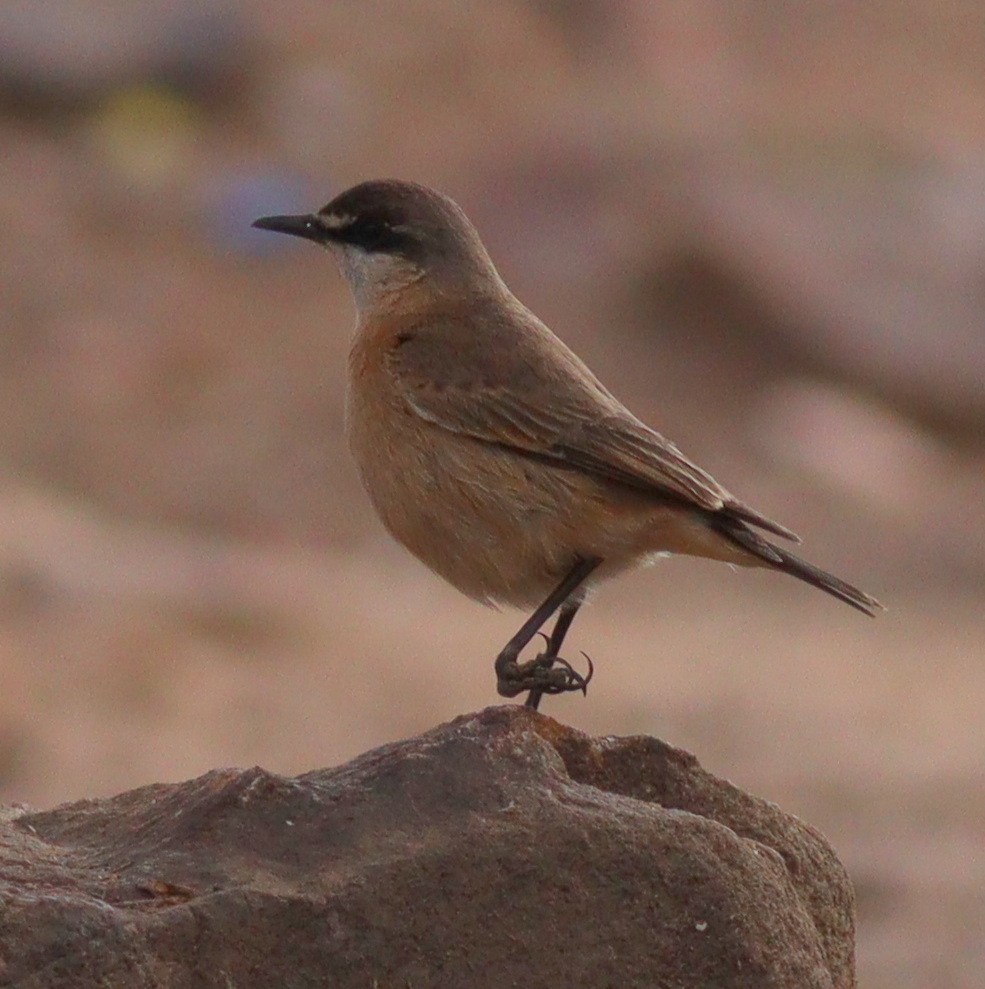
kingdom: Animalia
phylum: Chordata
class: Aves
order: Passeriformes
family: Muscicapidae
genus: Oenanthe
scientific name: Oenanthe bottae
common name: Red-breasted wheatear
